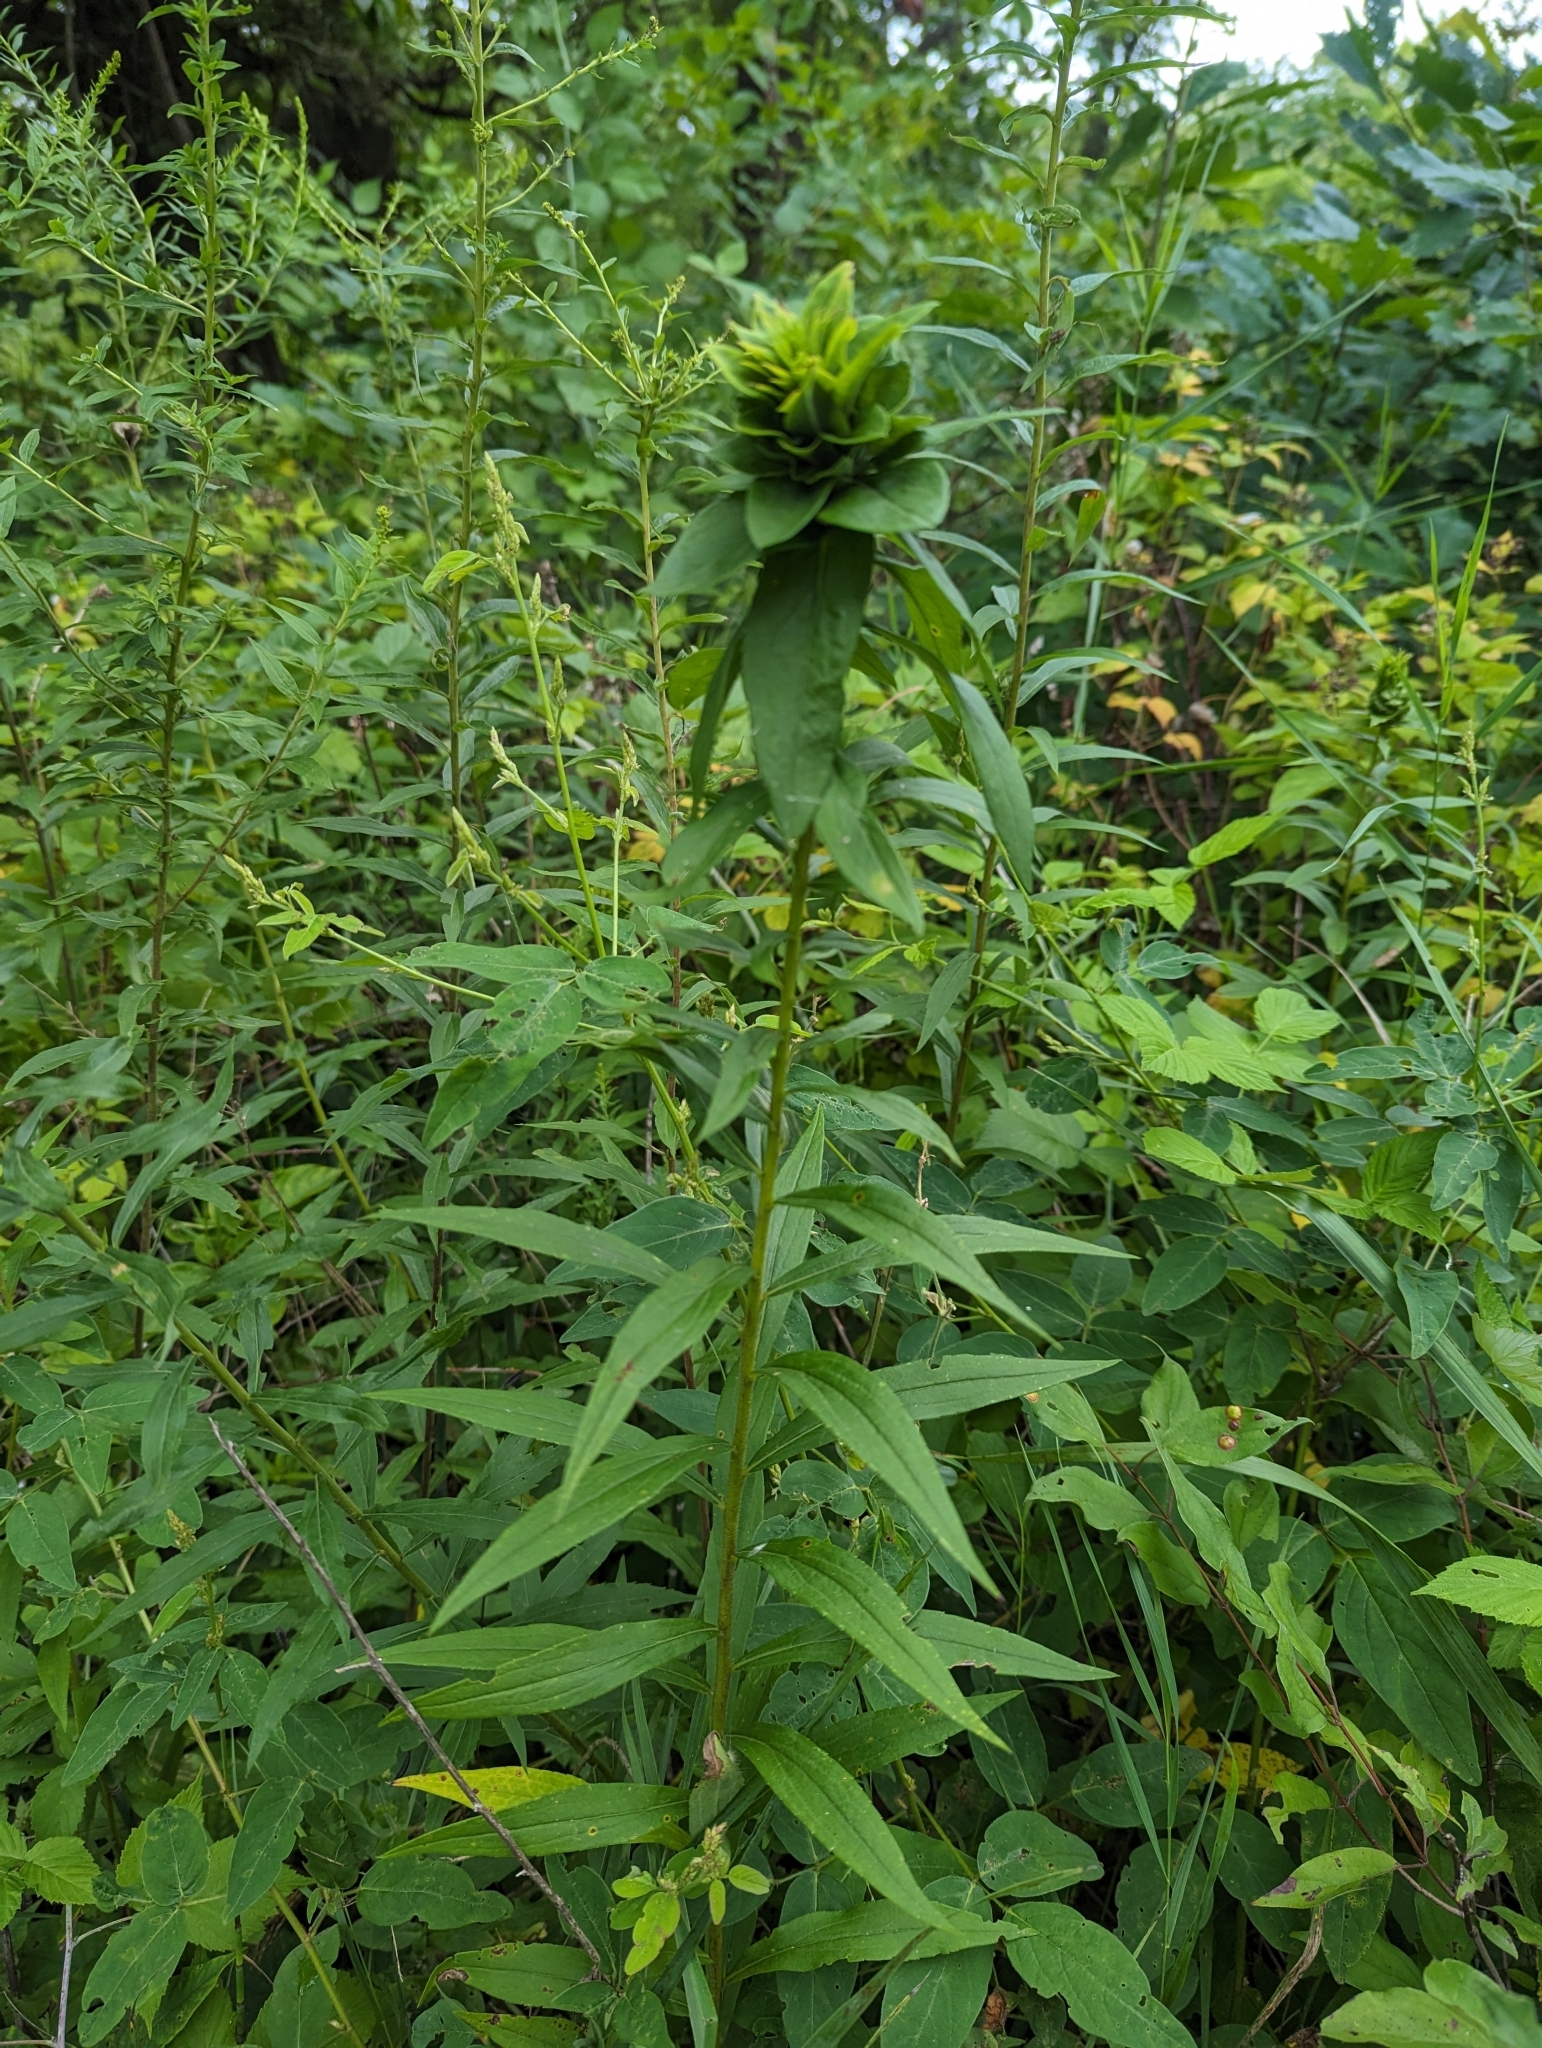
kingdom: Animalia
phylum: Arthropoda
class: Insecta
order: Diptera
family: Cecidomyiidae
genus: Rhopalomyia
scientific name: Rhopalomyia solidaginis
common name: Goldenrod bunch gall midge
